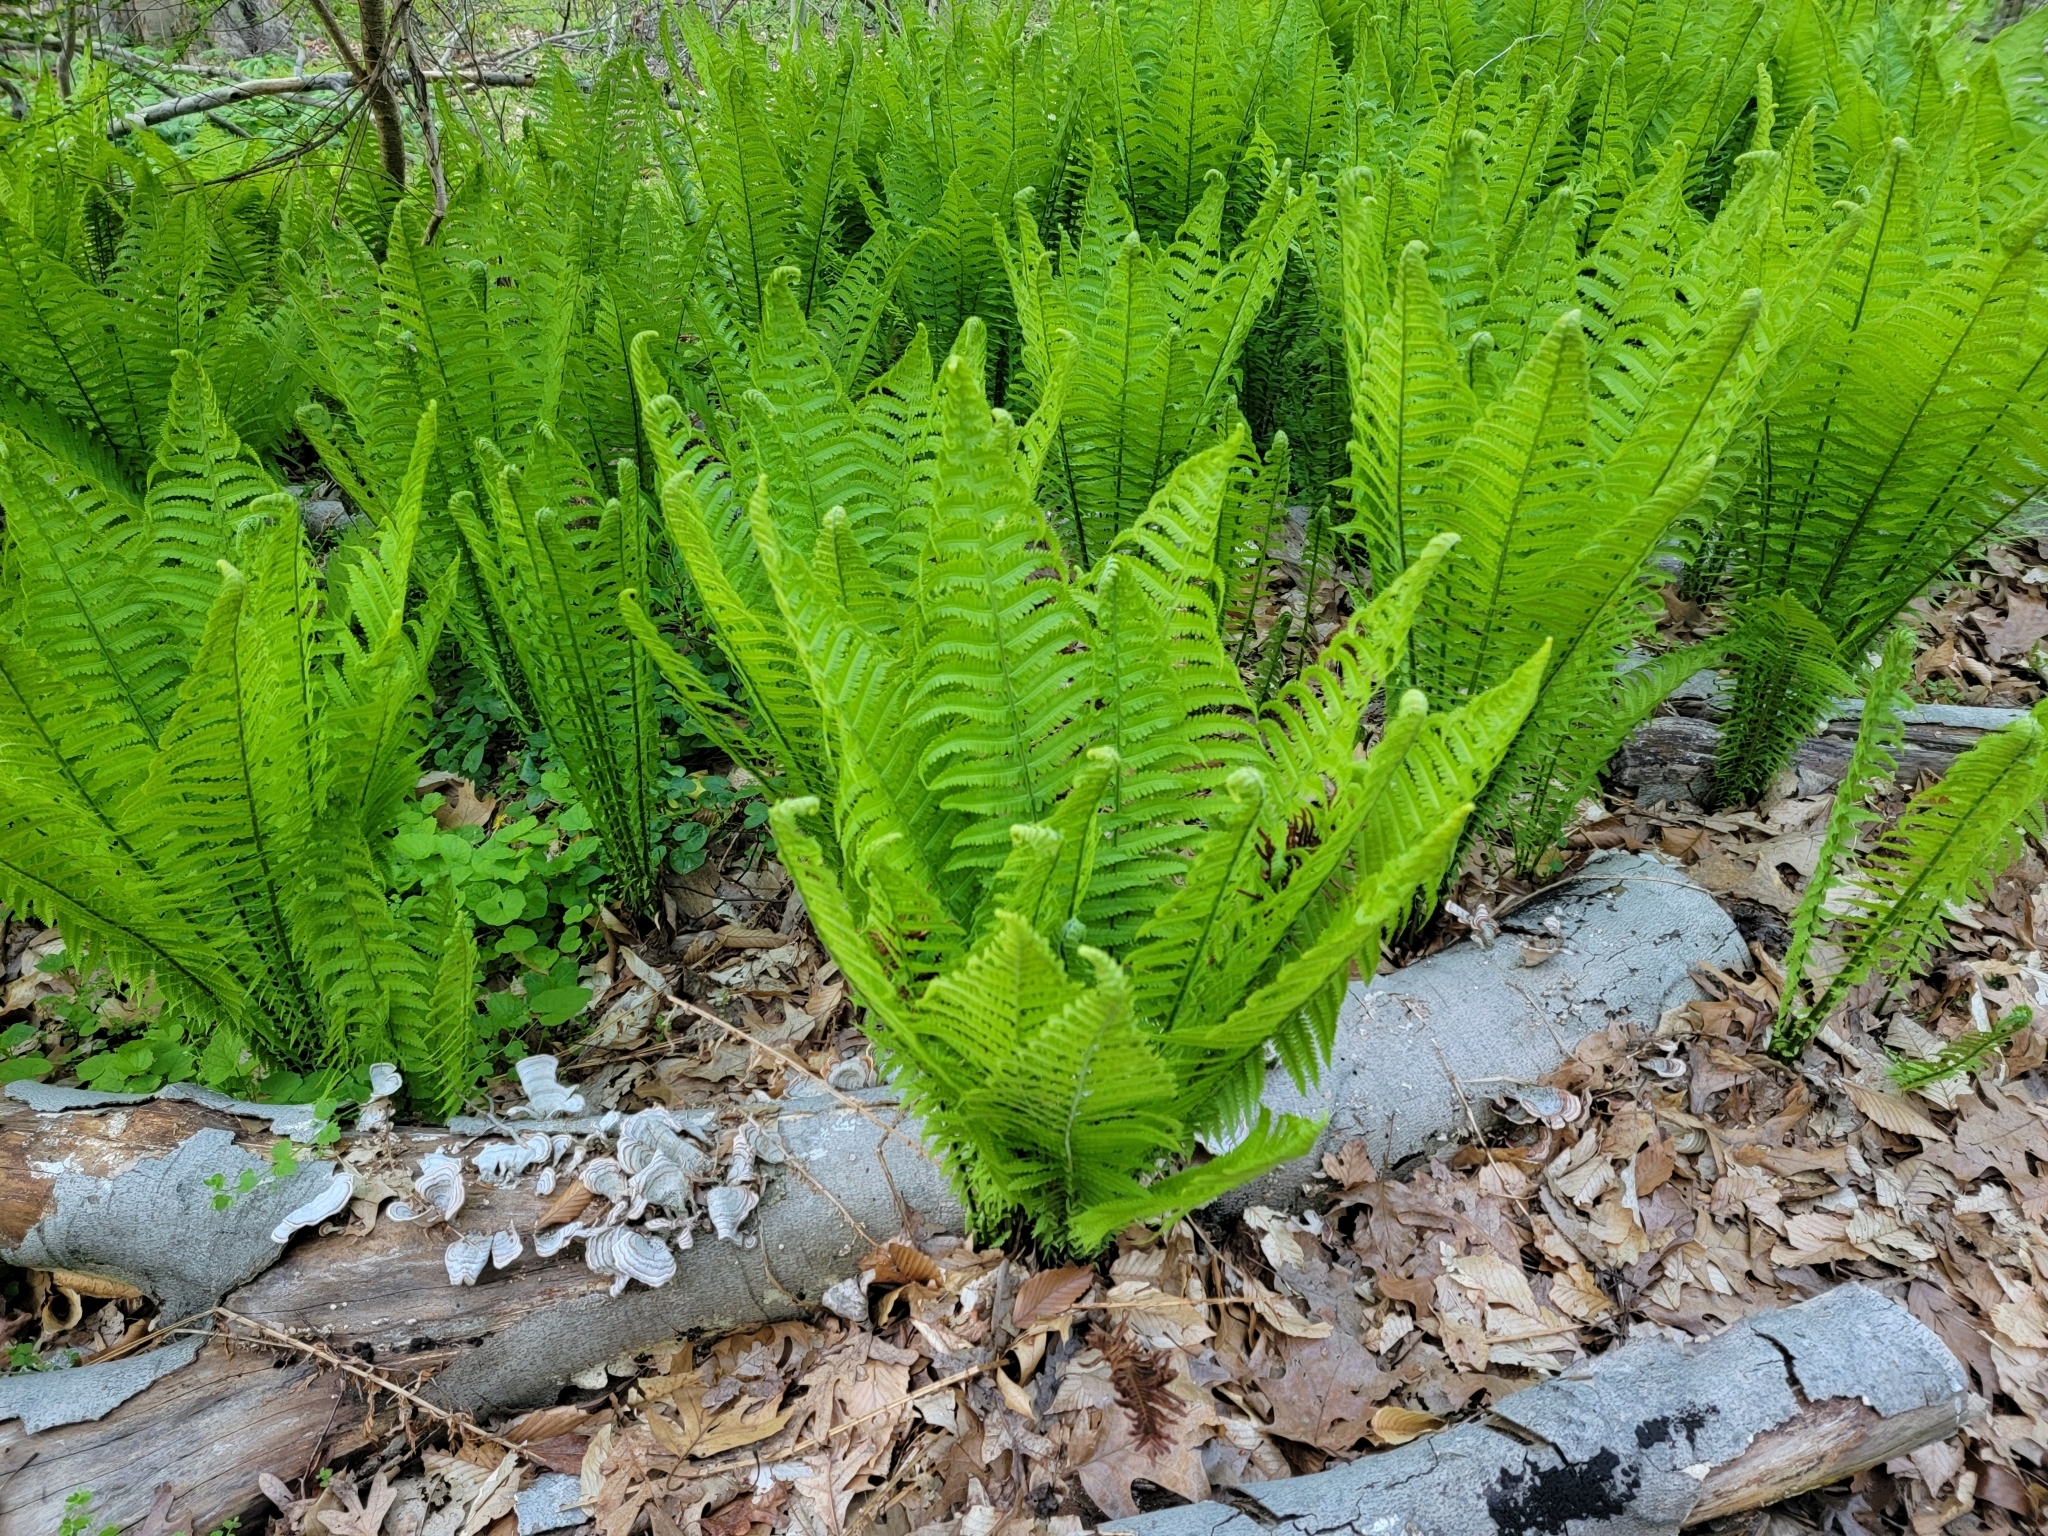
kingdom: Plantae
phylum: Tracheophyta
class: Polypodiopsida
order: Polypodiales
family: Onocleaceae
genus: Matteuccia
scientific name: Matteuccia struthiopteris
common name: Ostrich fern
